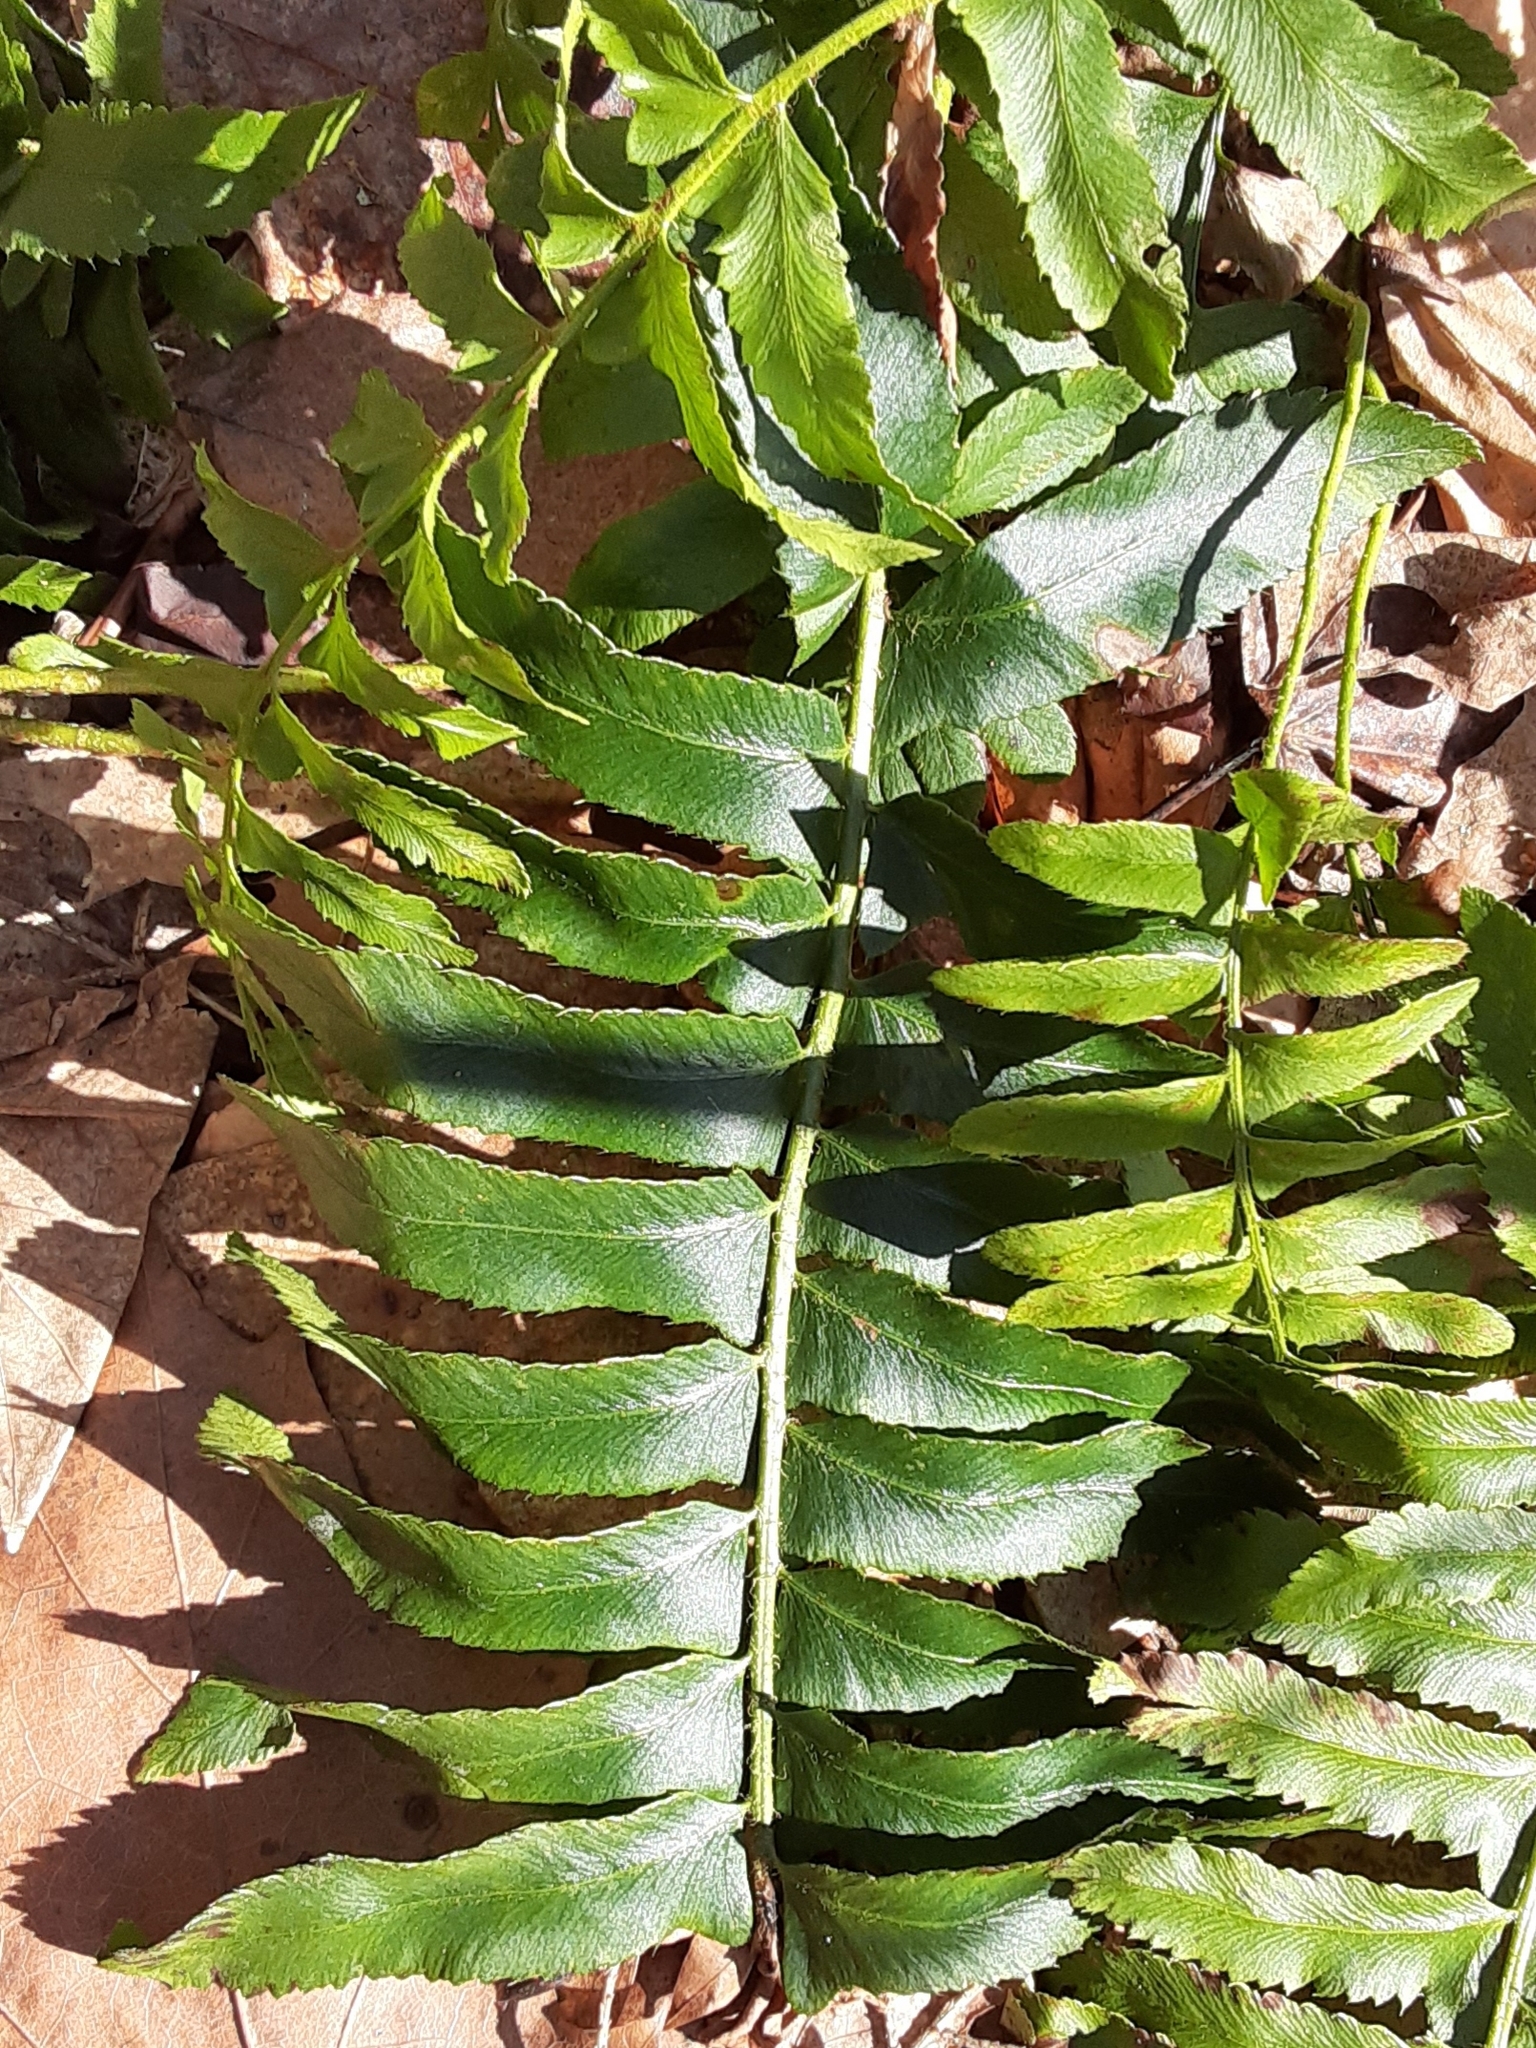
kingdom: Plantae
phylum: Tracheophyta
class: Polypodiopsida
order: Polypodiales
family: Dryopteridaceae
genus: Polystichum
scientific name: Polystichum acrostichoides
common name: Christmas fern
